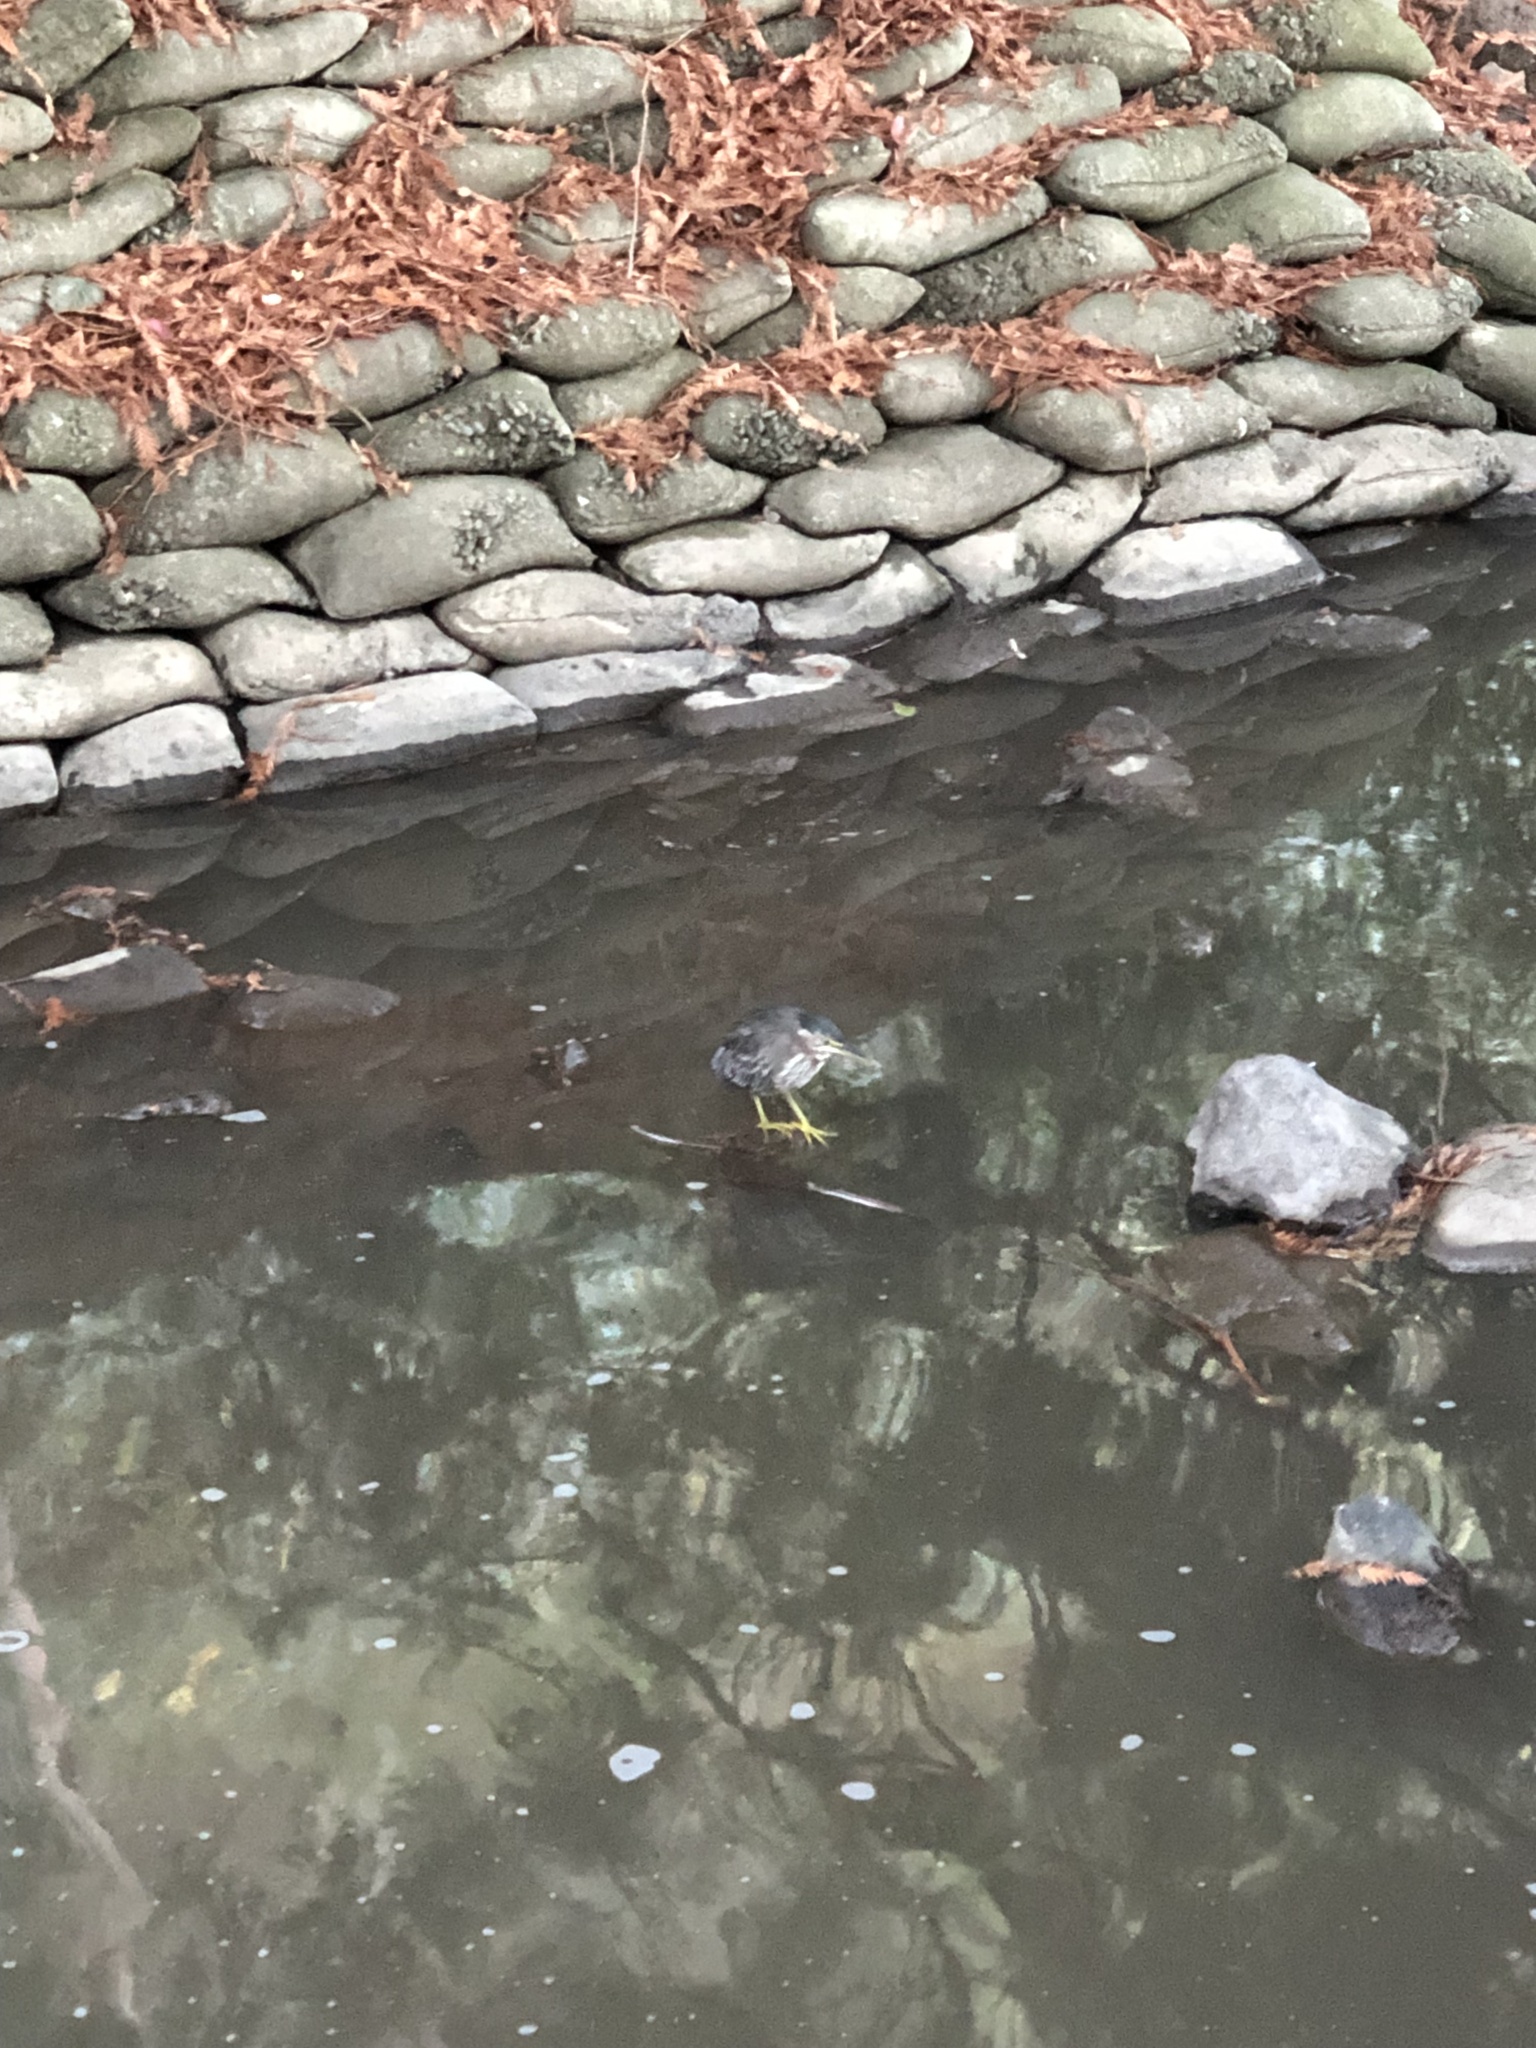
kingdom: Animalia
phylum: Chordata
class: Aves
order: Pelecaniformes
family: Ardeidae
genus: Butorides
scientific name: Butorides virescens
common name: Green heron
